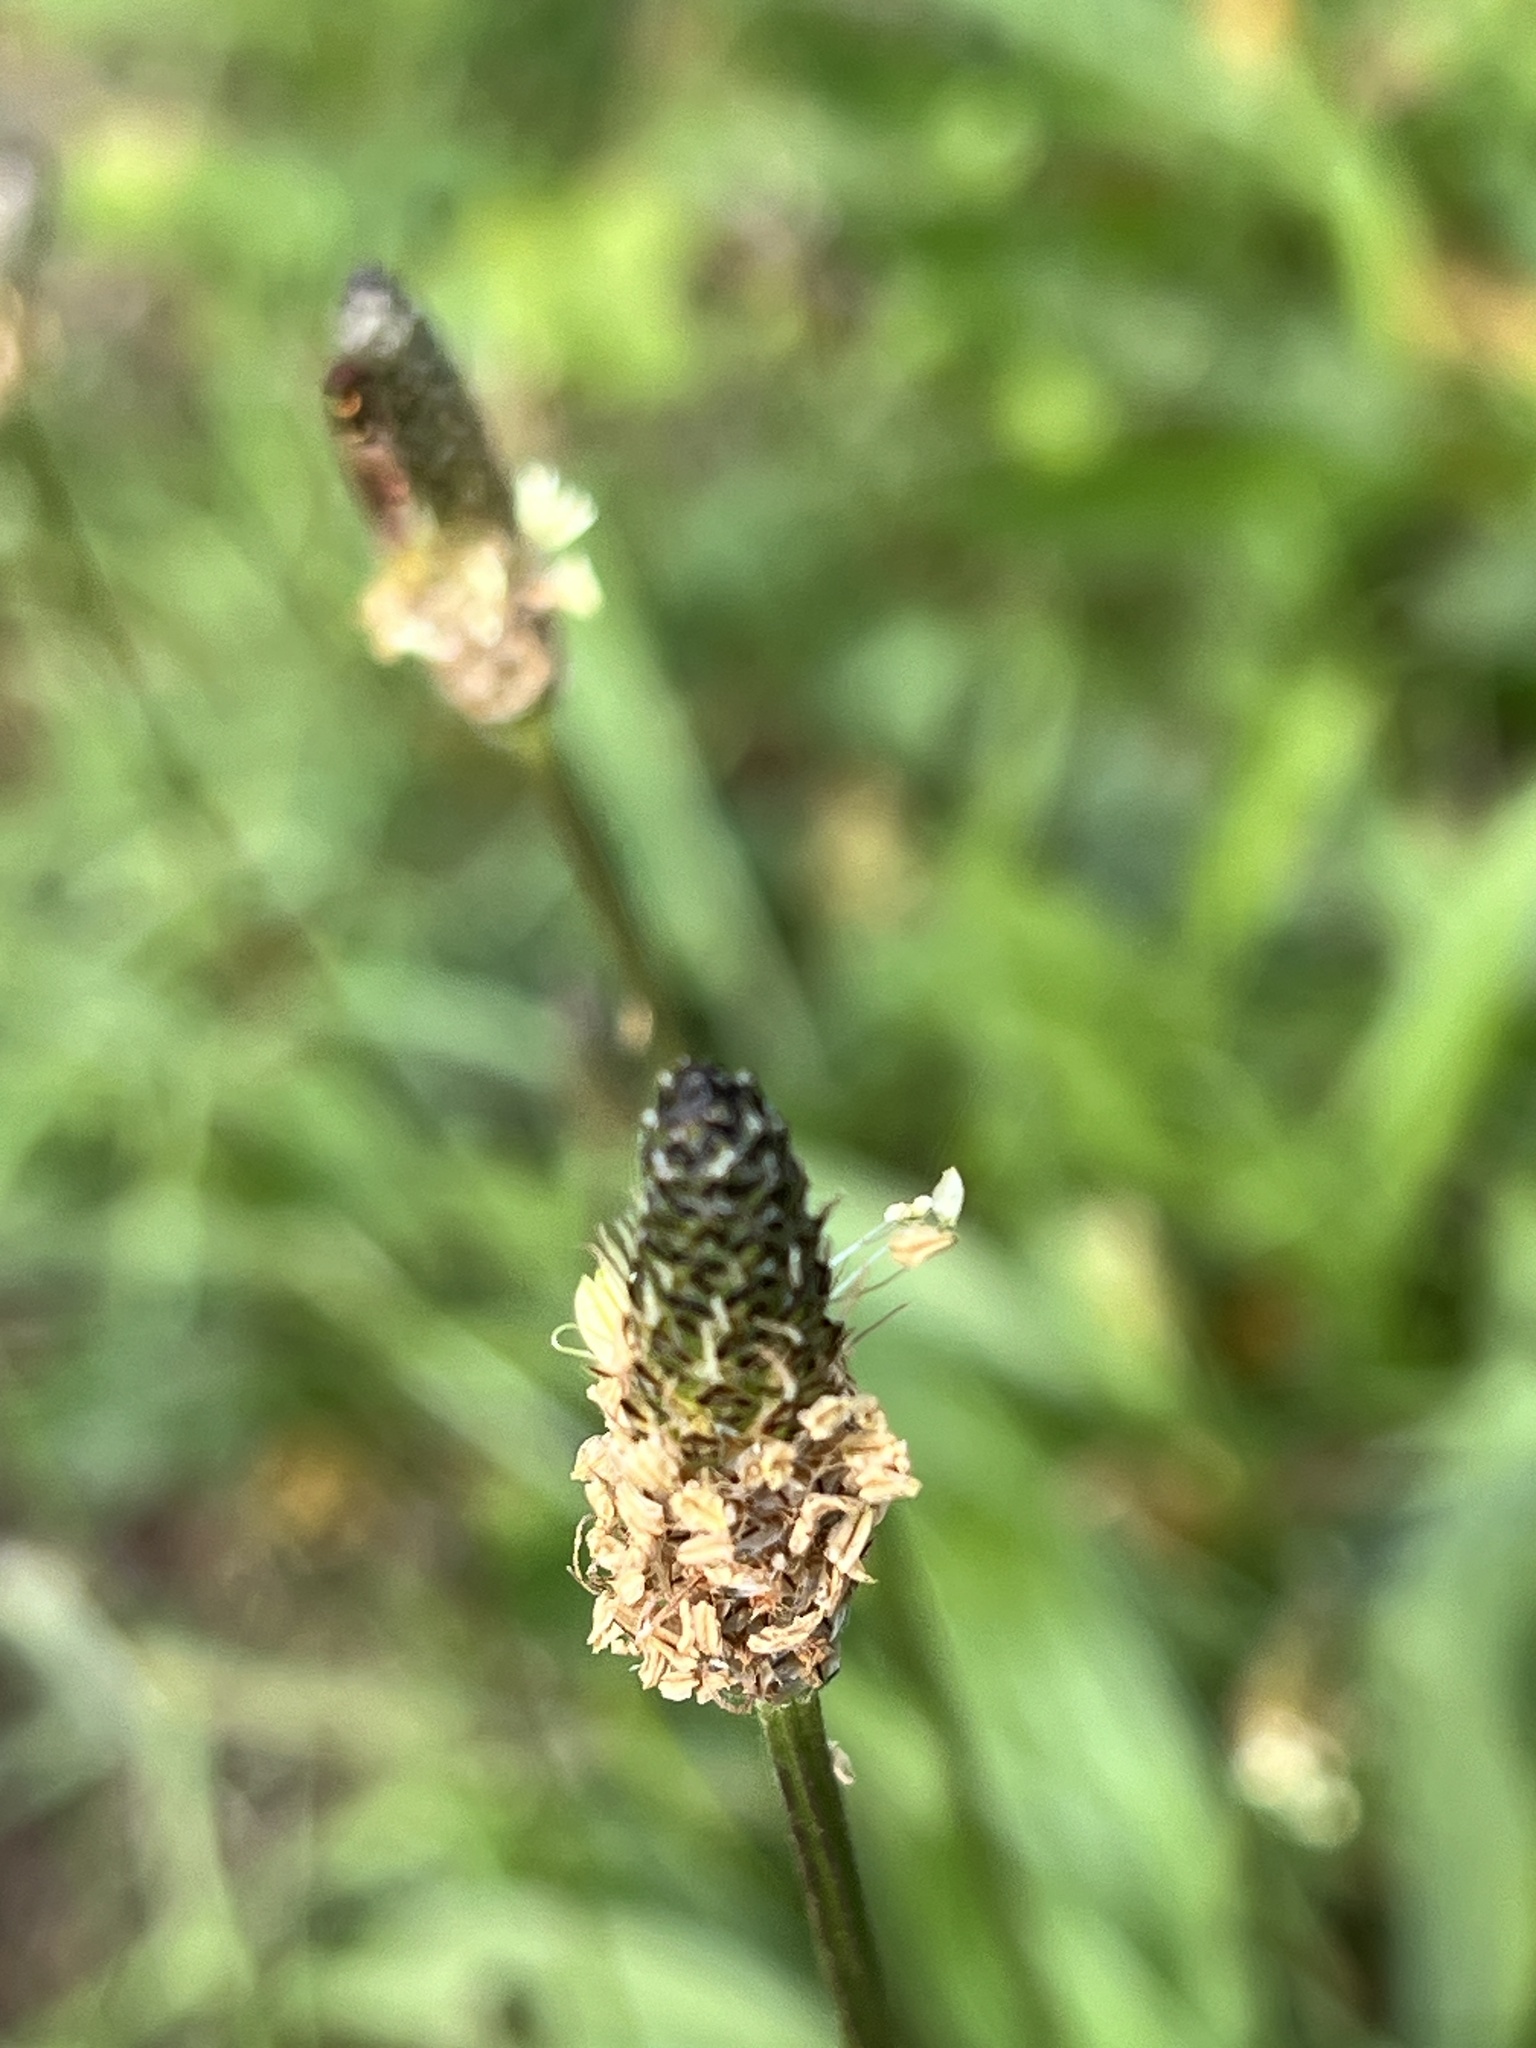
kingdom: Plantae
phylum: Tracheophyta
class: Magnoliopsida
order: Lamiales
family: Plantaginaceae
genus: Plantago
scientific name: Plantago lanceolata
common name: Ribwort plantain
